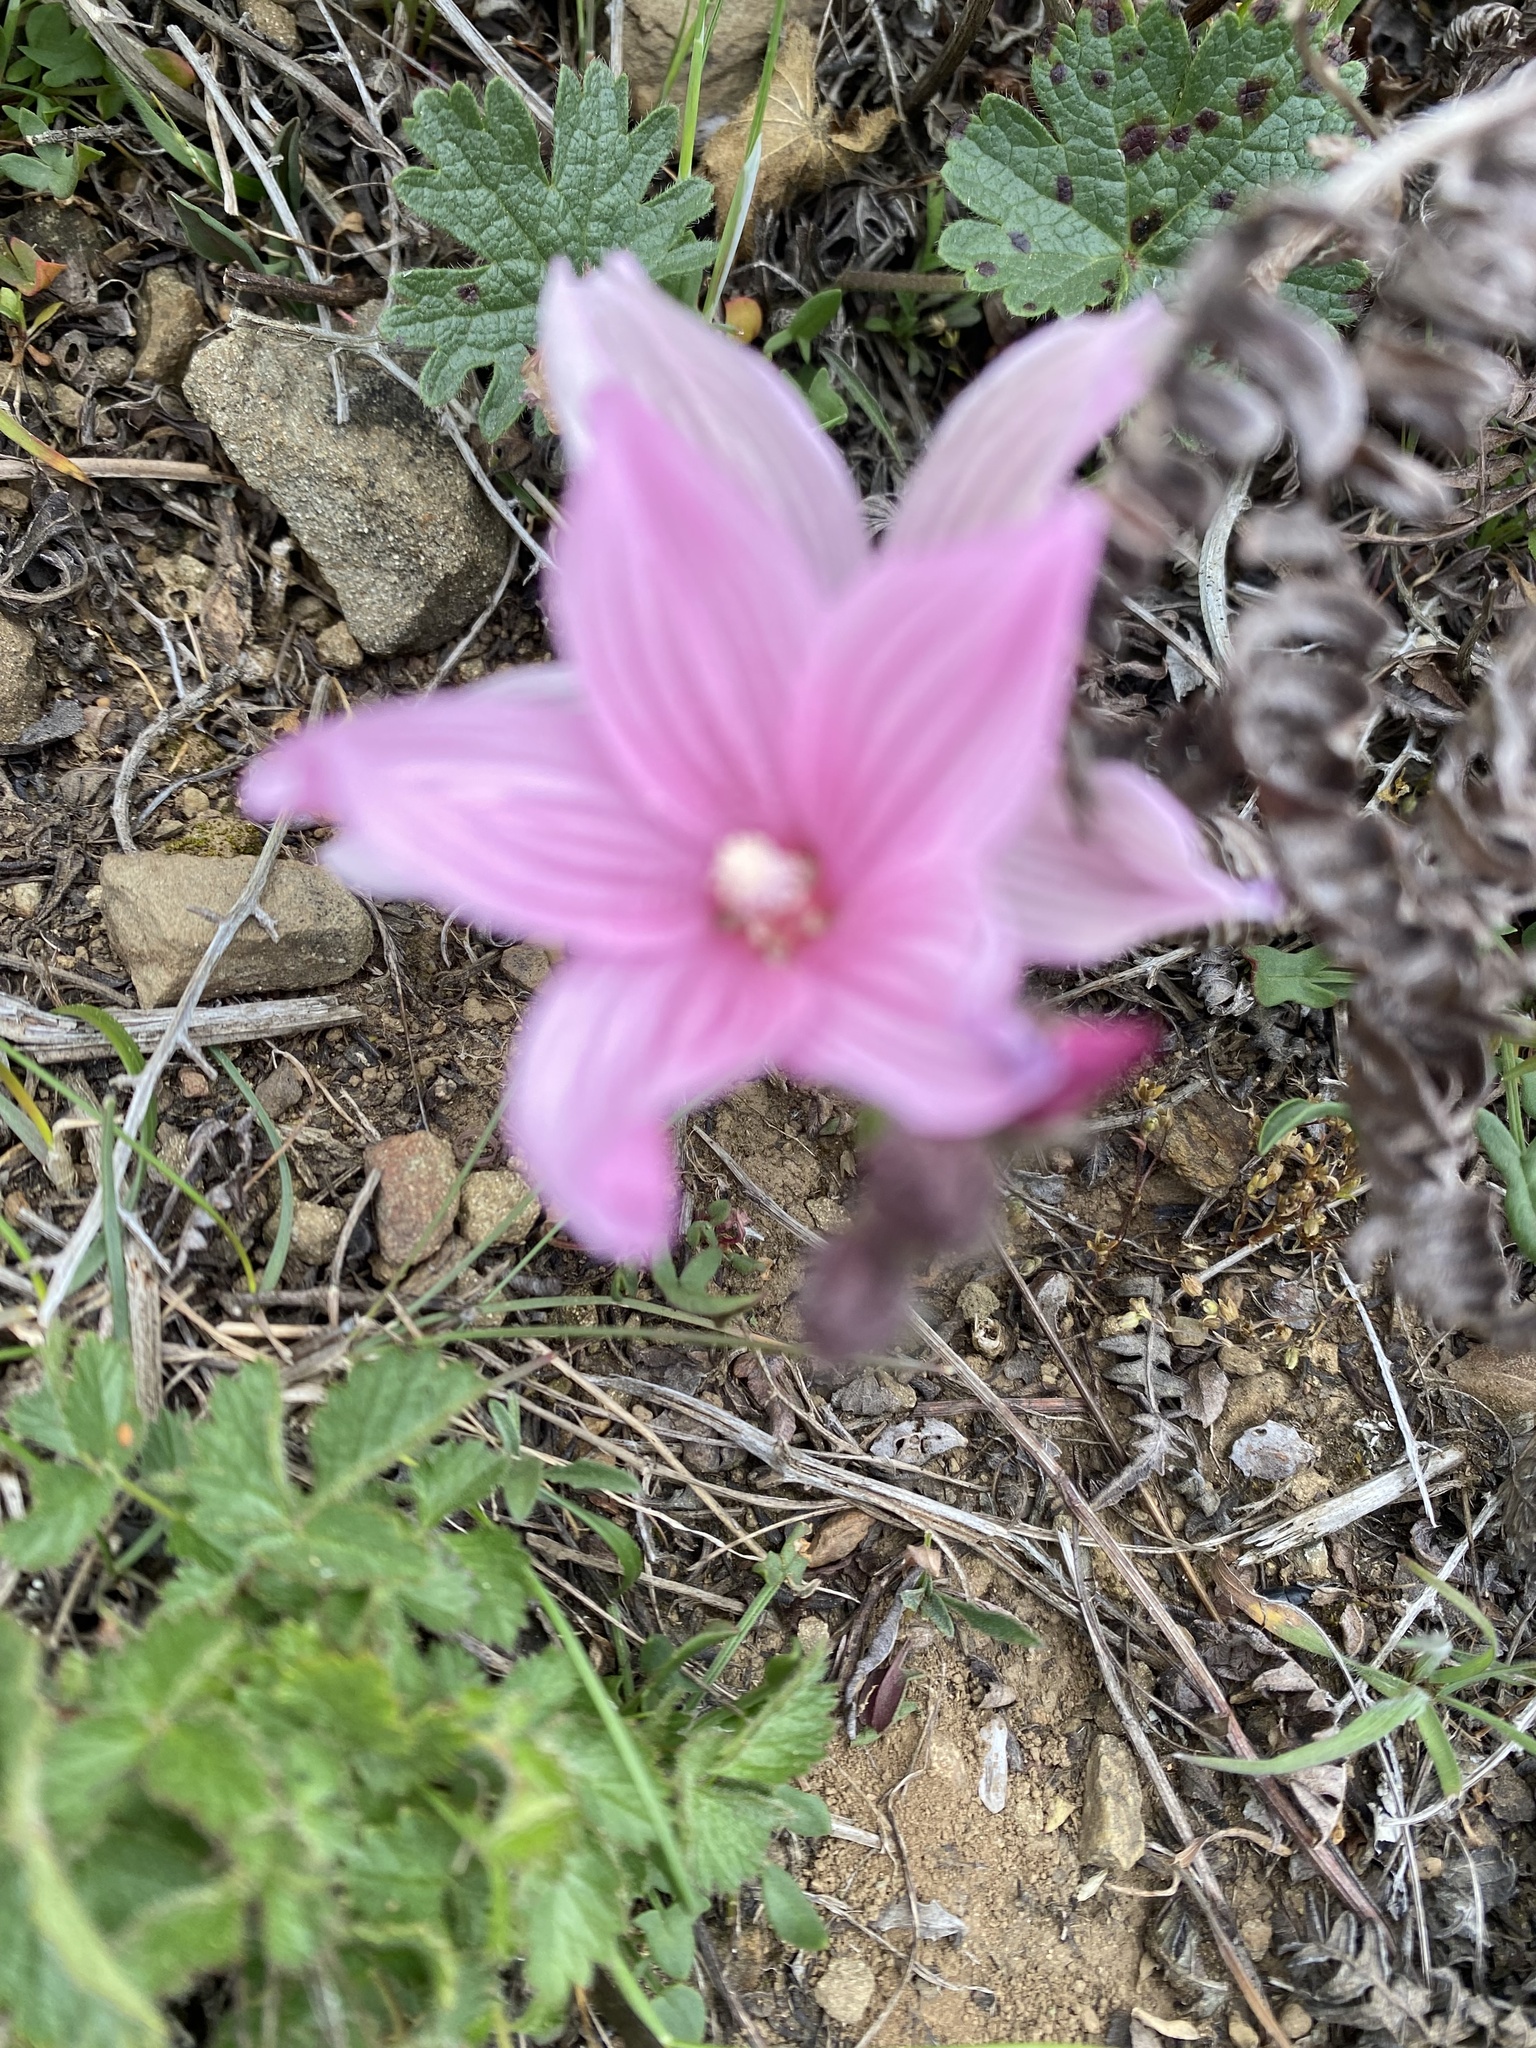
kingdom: Plantae
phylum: Tracheophyta
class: Magnoliopsida
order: Malvales
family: Malvaceae
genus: Sidalcea
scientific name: Sidalcea malviflora
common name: Greek mallow
